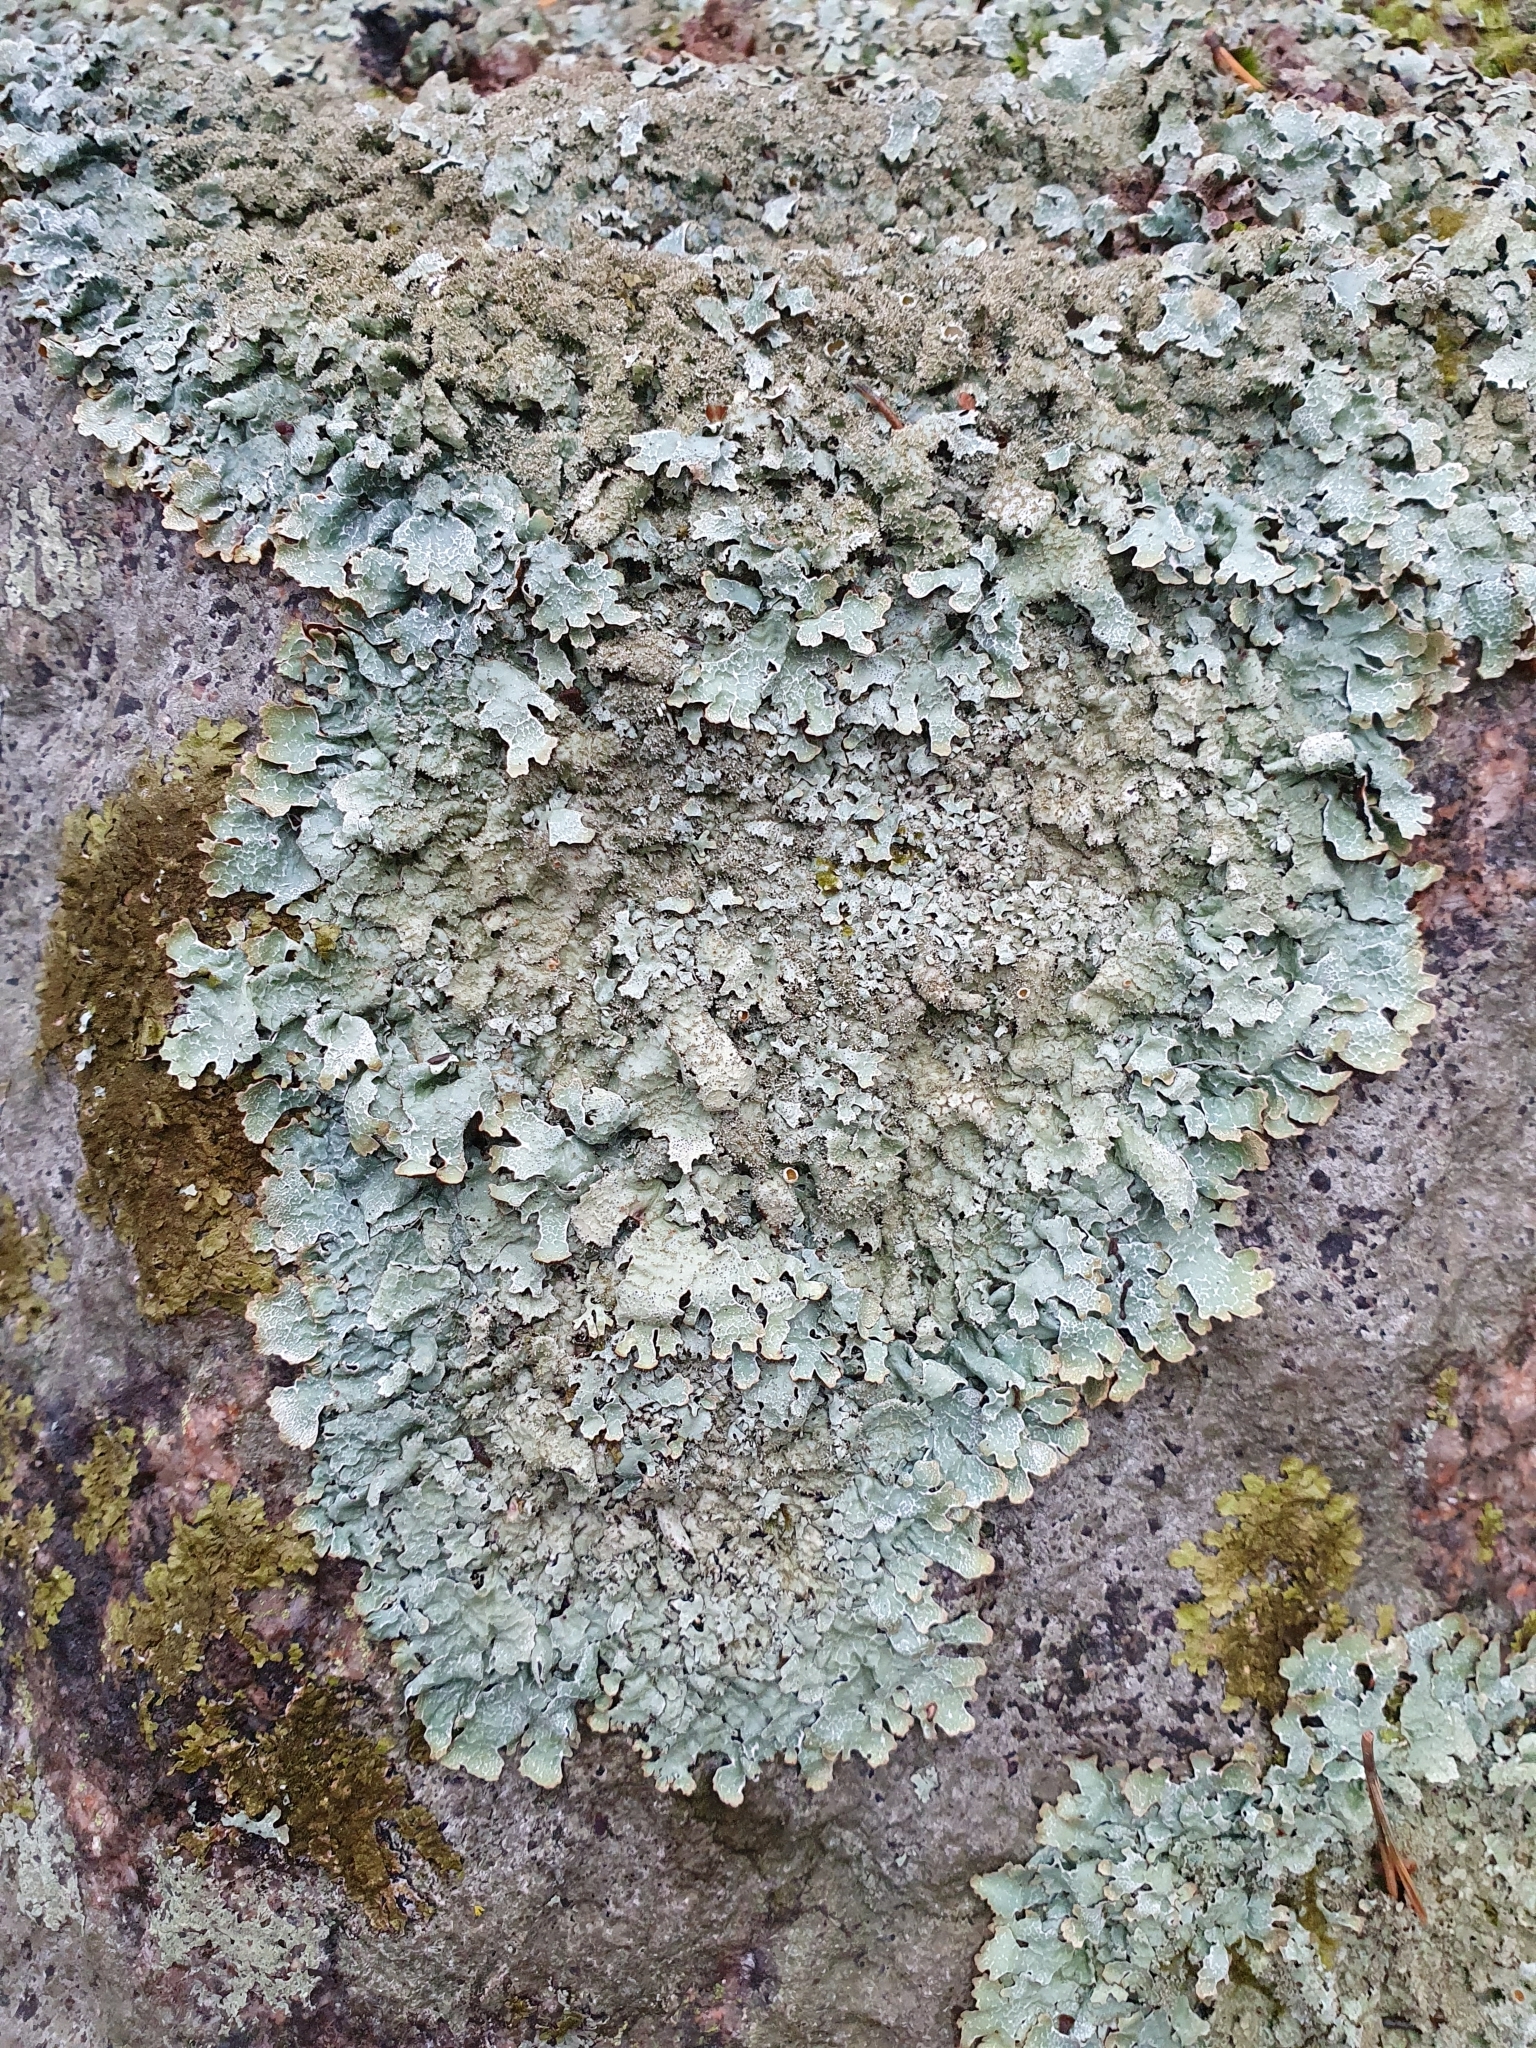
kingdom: Fungi
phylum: Ascomycota
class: Lecanoromycetes
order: Lecanorales
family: Parmeliaceae
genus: Parmelia
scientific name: Parmelia saxatilis
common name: Salted shield lichen
